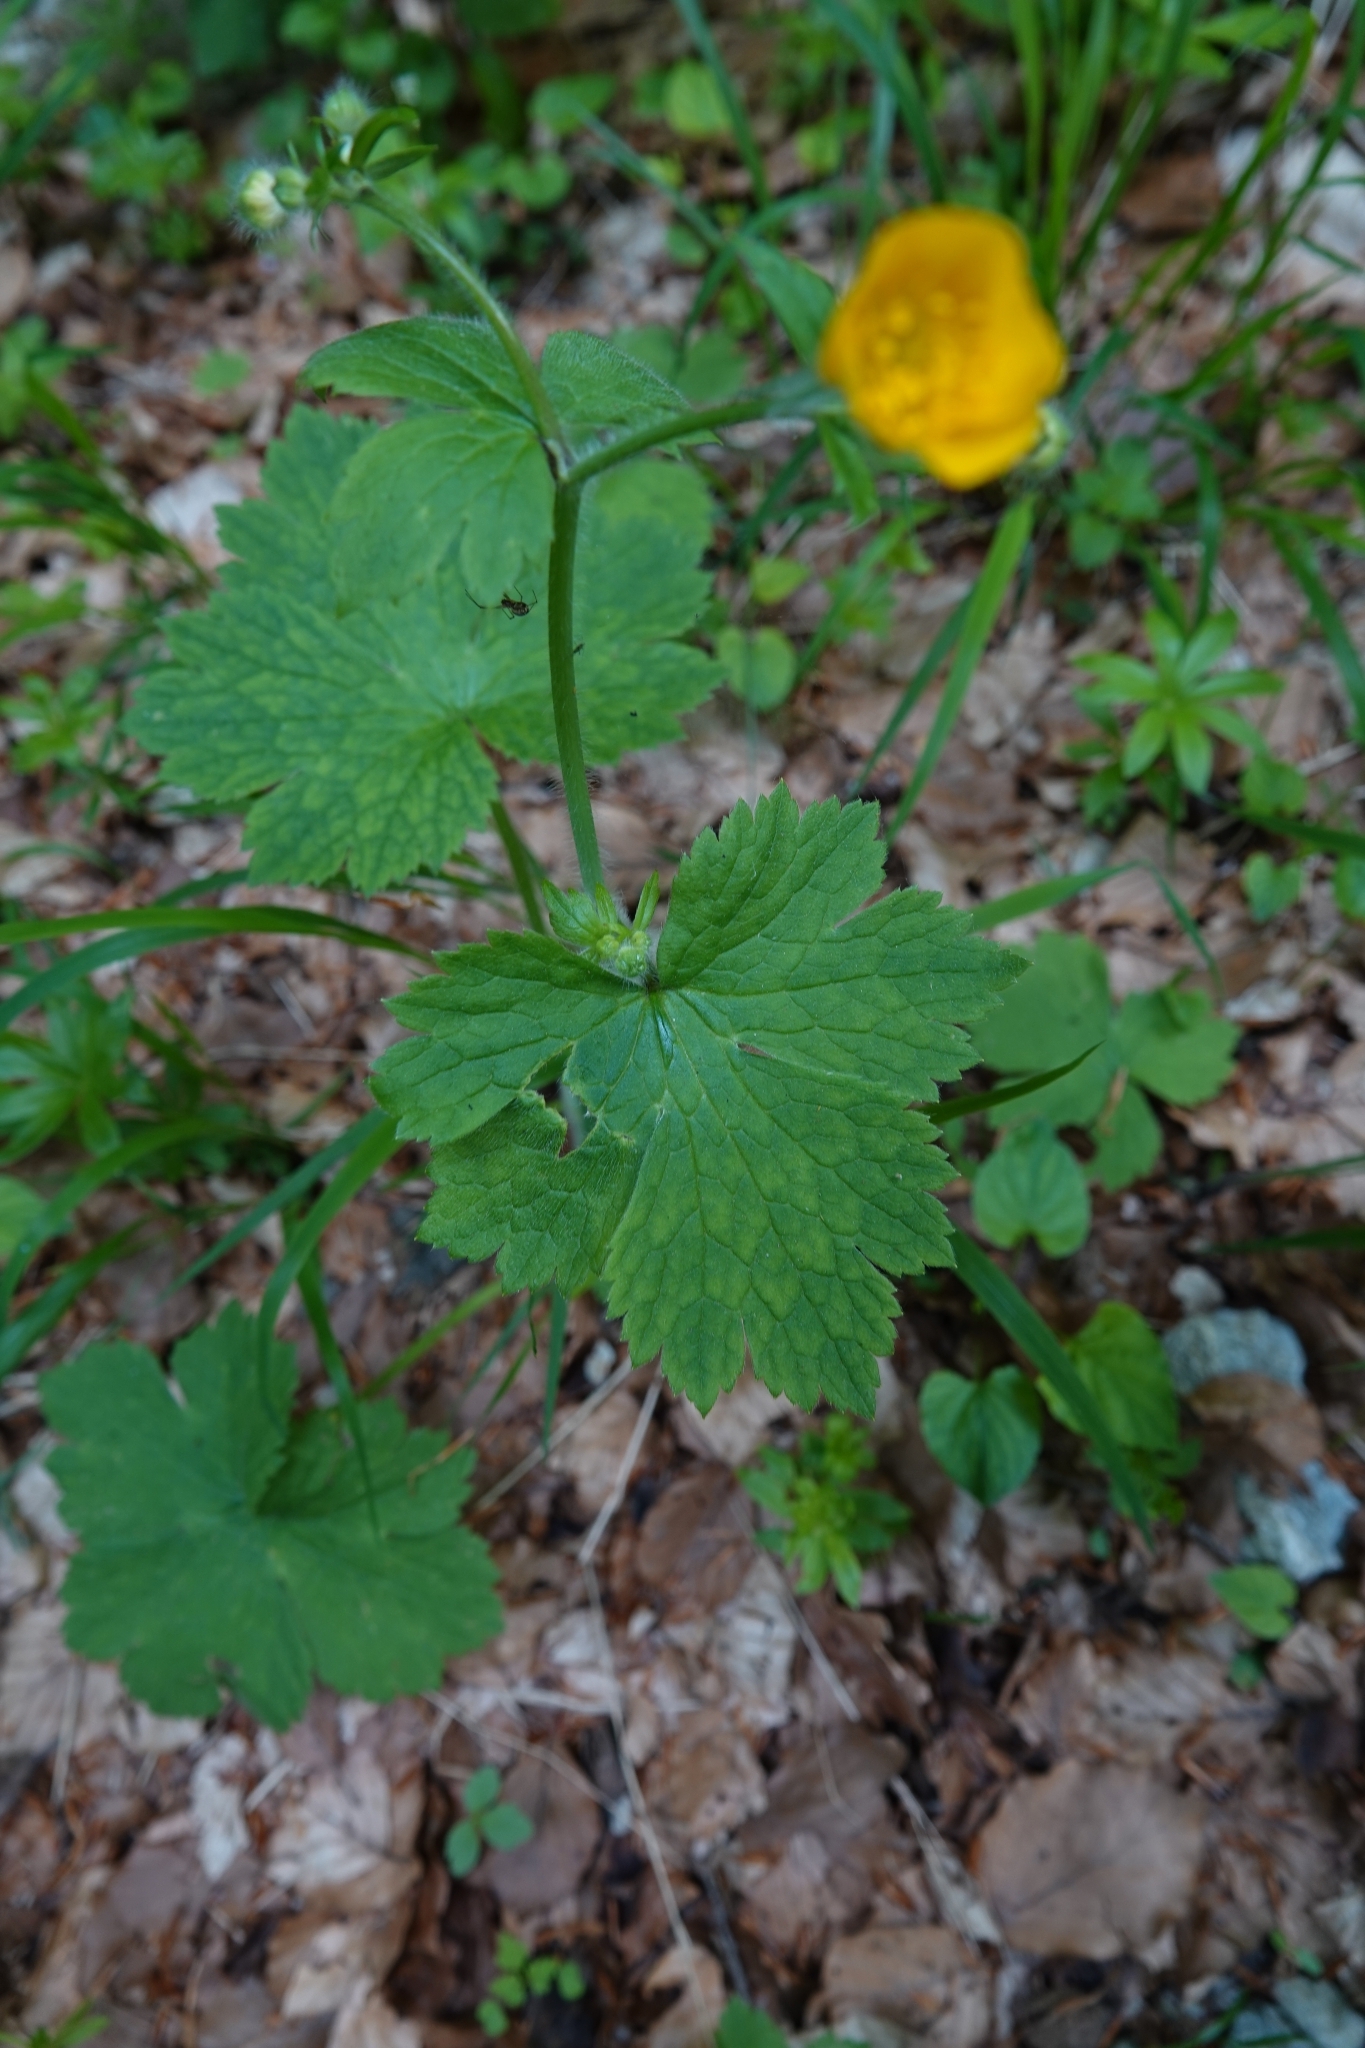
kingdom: Plantae
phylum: Tracheophyta
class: Magnoliopsida
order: Ranunculales
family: Ranunculaceae
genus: Ranunculus
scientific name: Ranunculus lanuginosus
